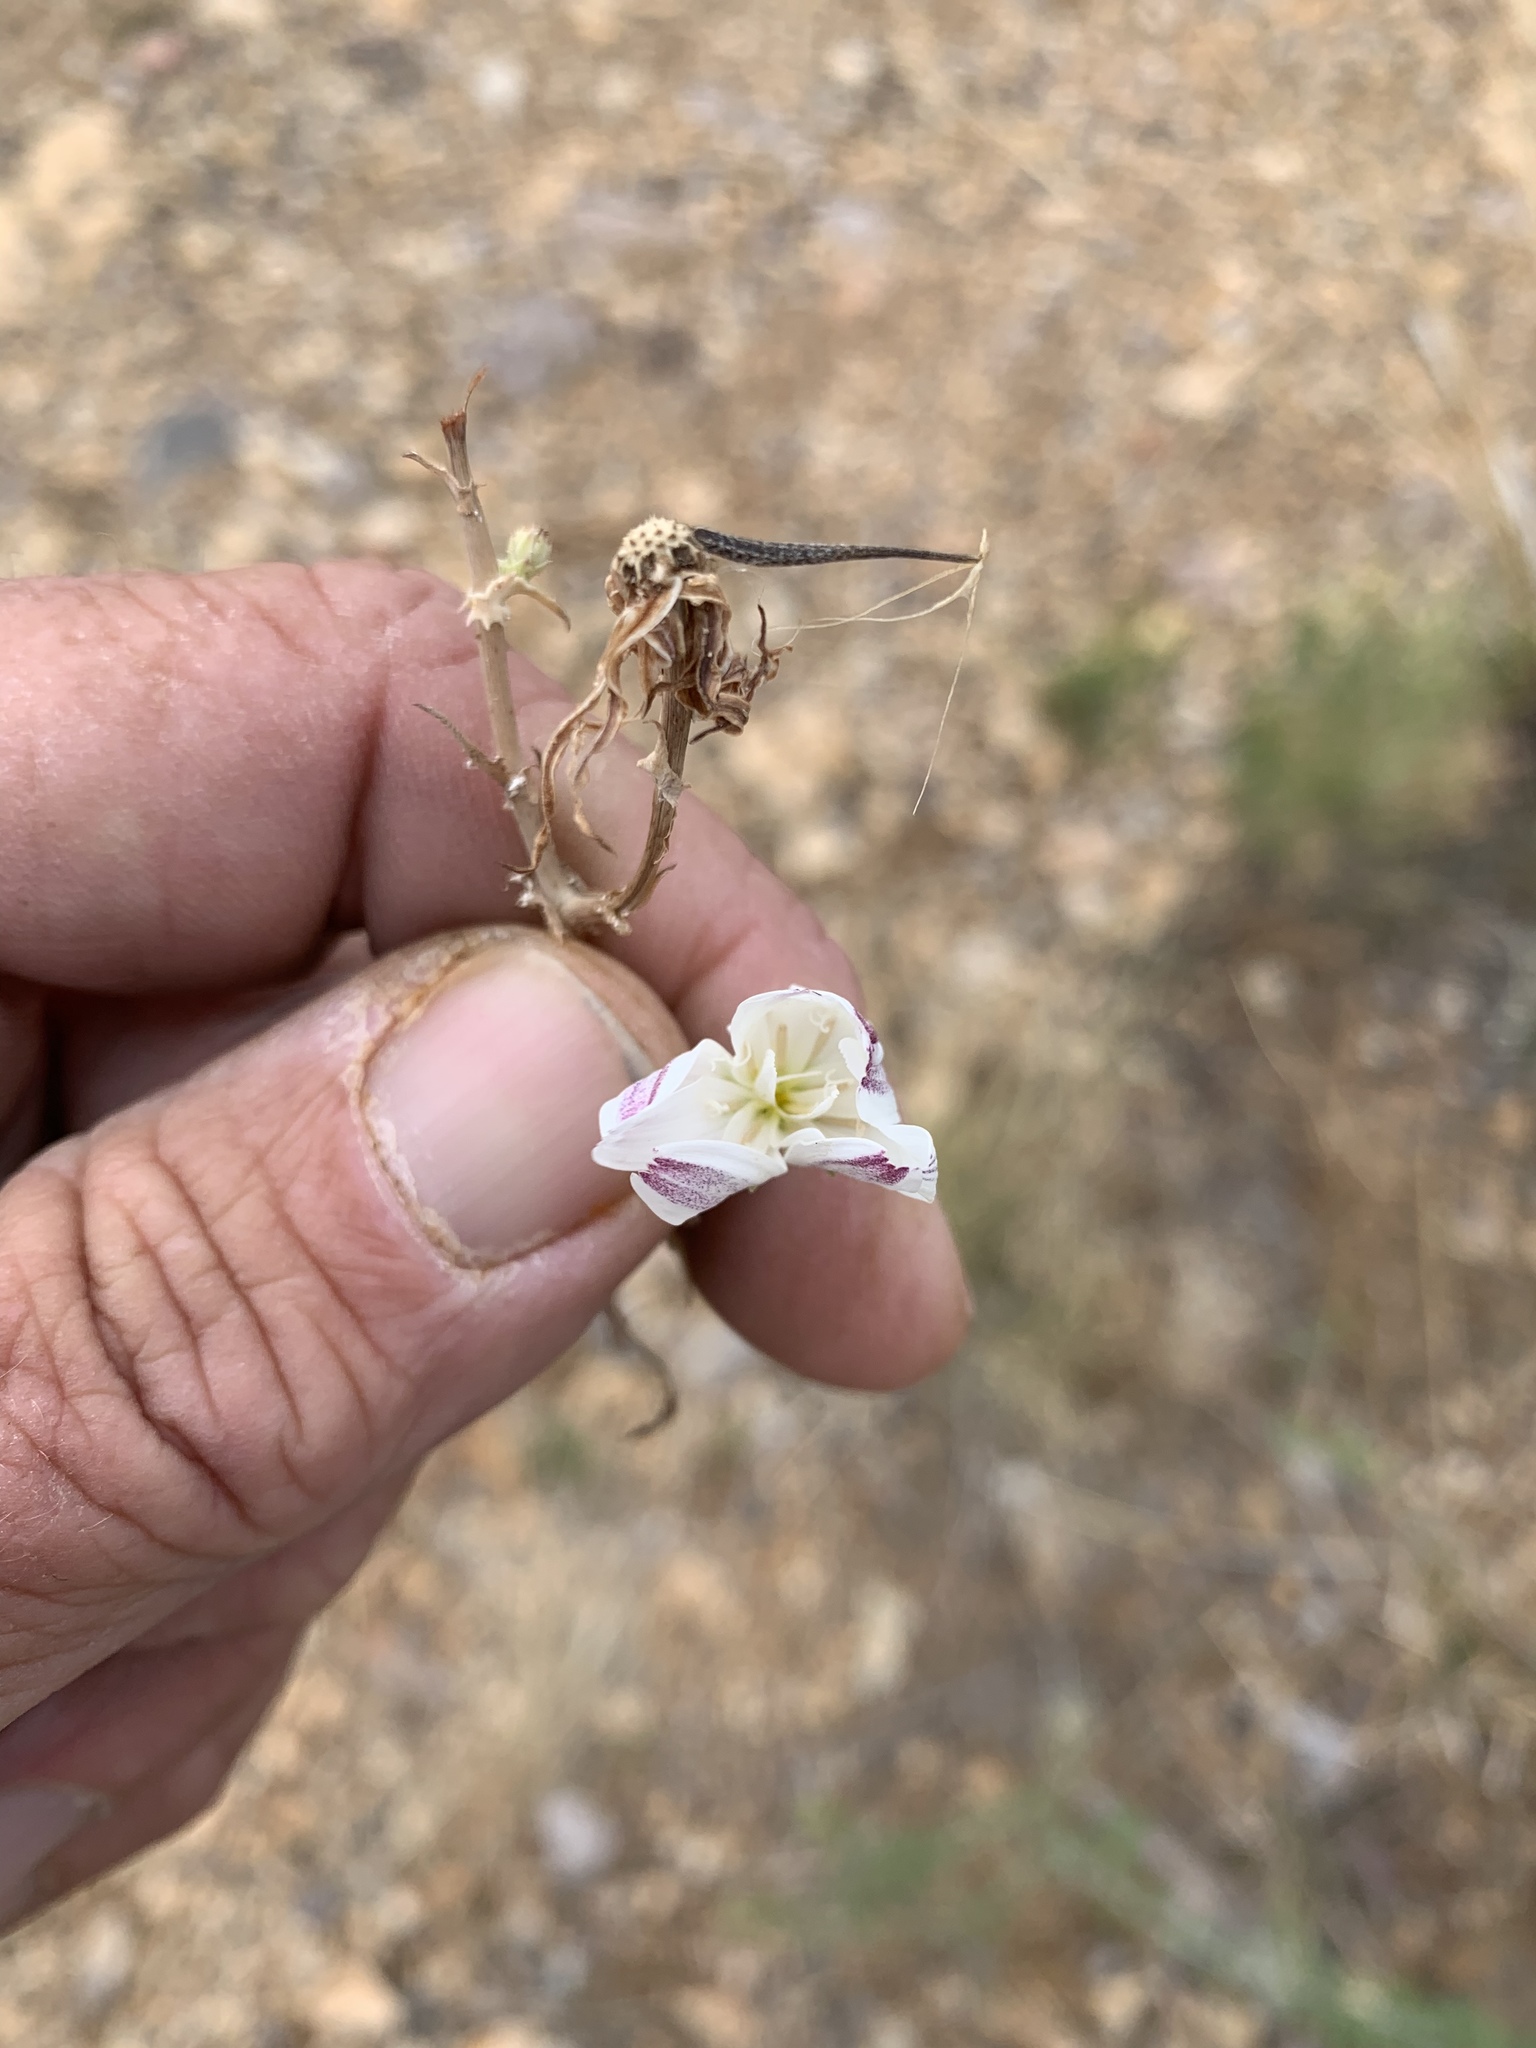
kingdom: Plantae
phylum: Tracheophyta
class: Magnoliopsida
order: Asterales
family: Asteraceae
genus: Rafinesquia
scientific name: Rafinesquia neomexicana
